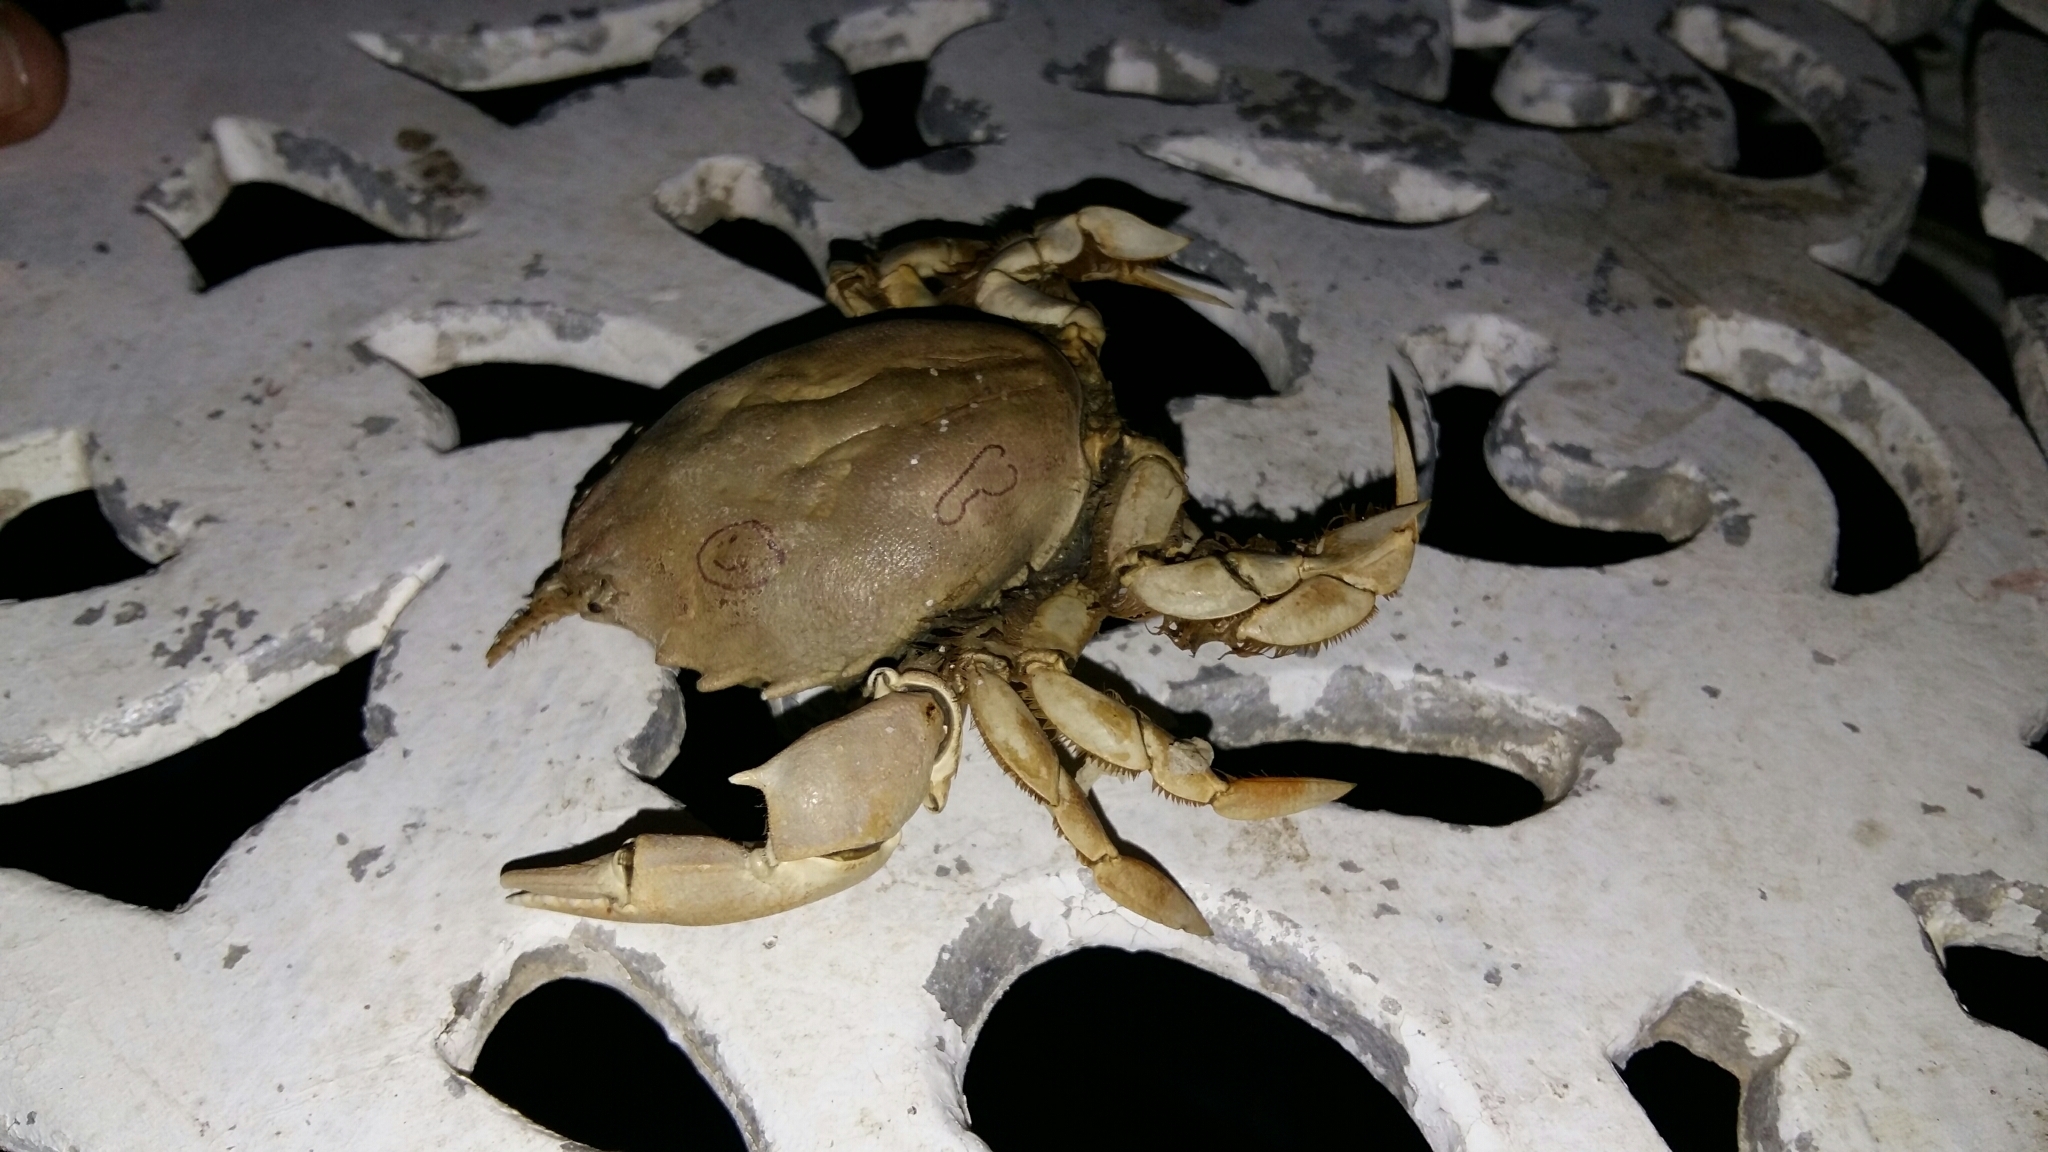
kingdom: Animalia
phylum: Arthropoda
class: Malacostraca
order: Decapoda
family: Nautilocorystidae
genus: Nautilocorystes
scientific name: Nautilocorystes ocellatus
